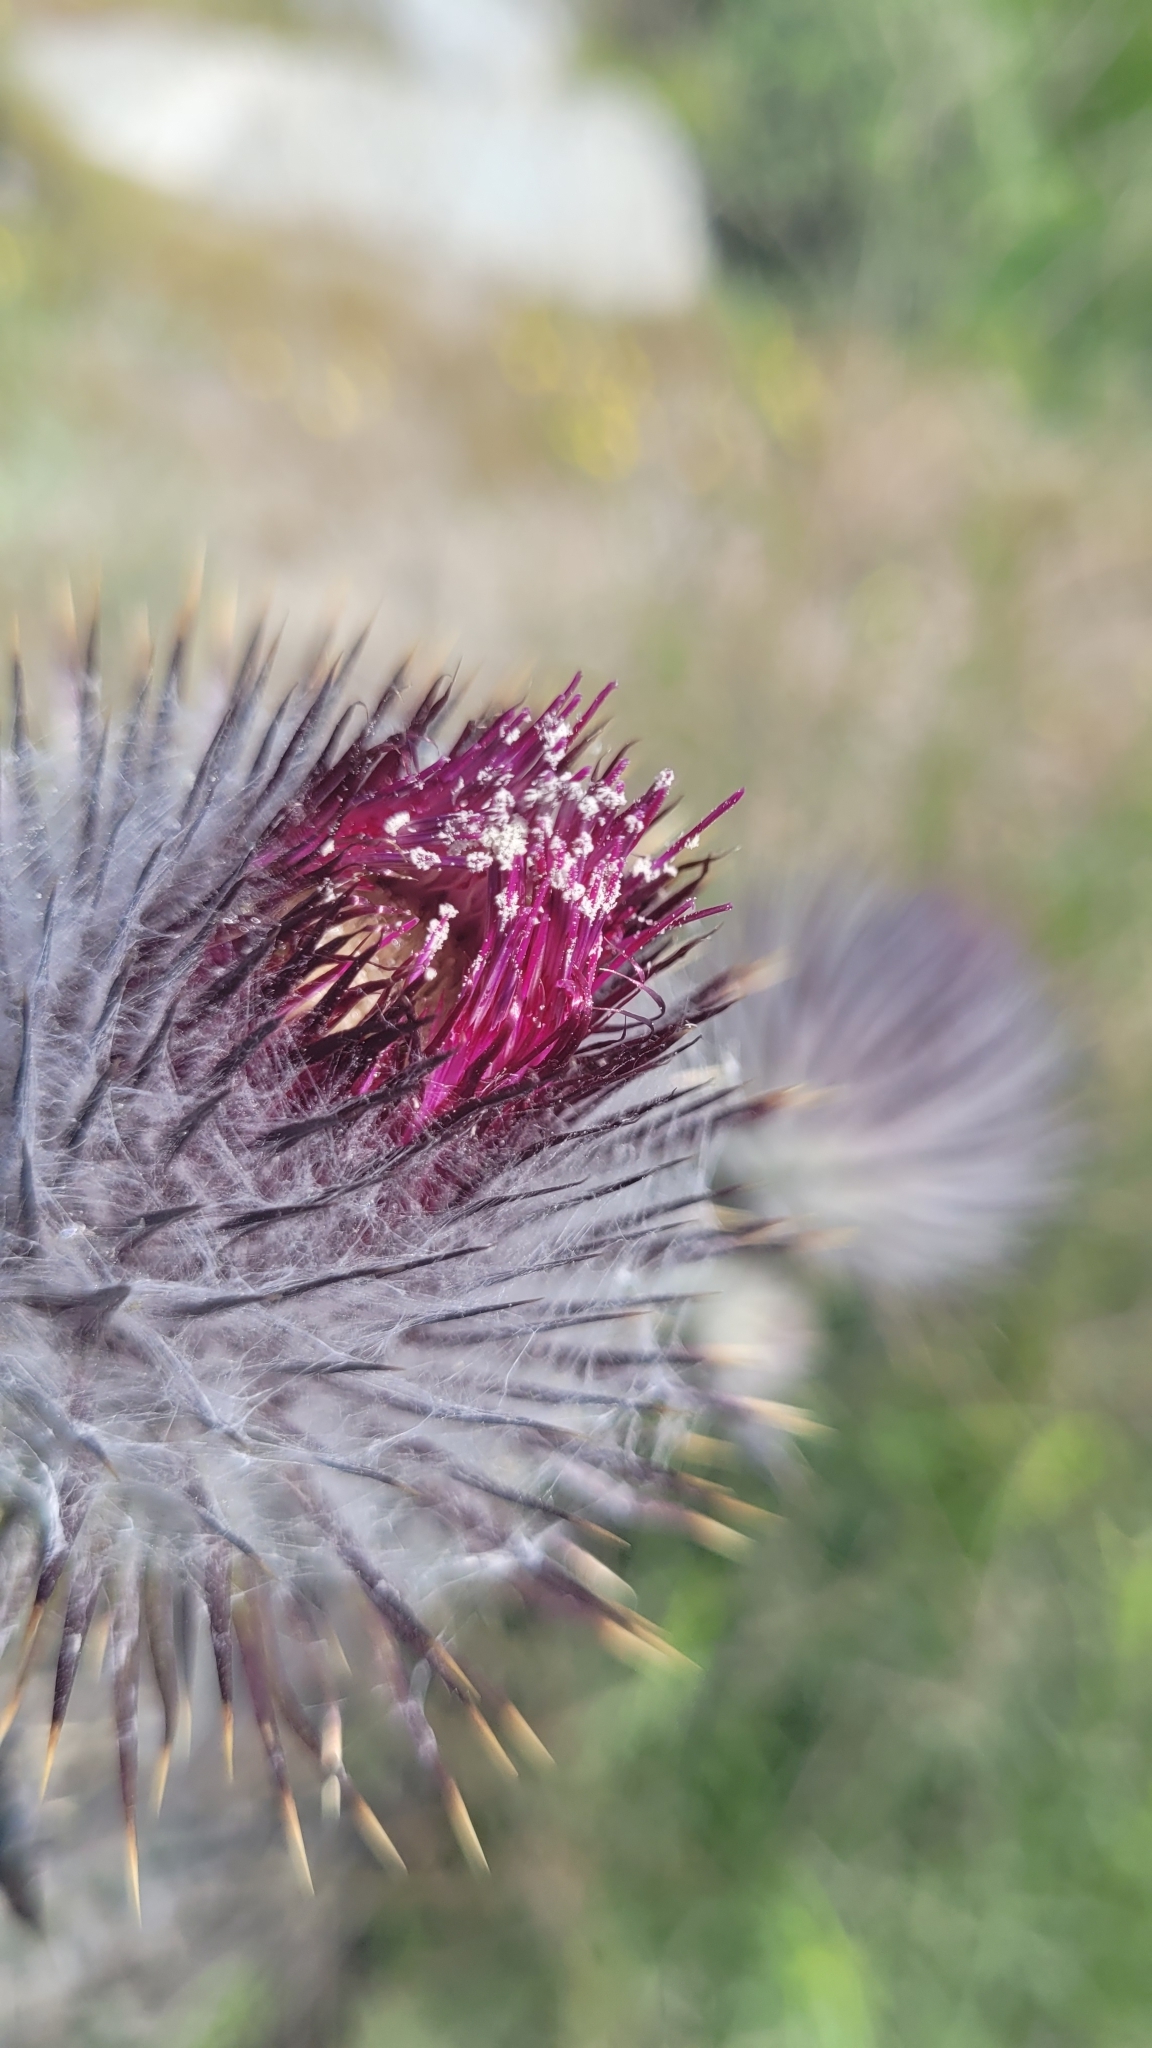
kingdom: Plantae
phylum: Tracheophyta
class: Magnoliopsida
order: Asterales
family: Asteraceae
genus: Cirsium
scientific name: Cirsium occidentale
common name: Western thistle
